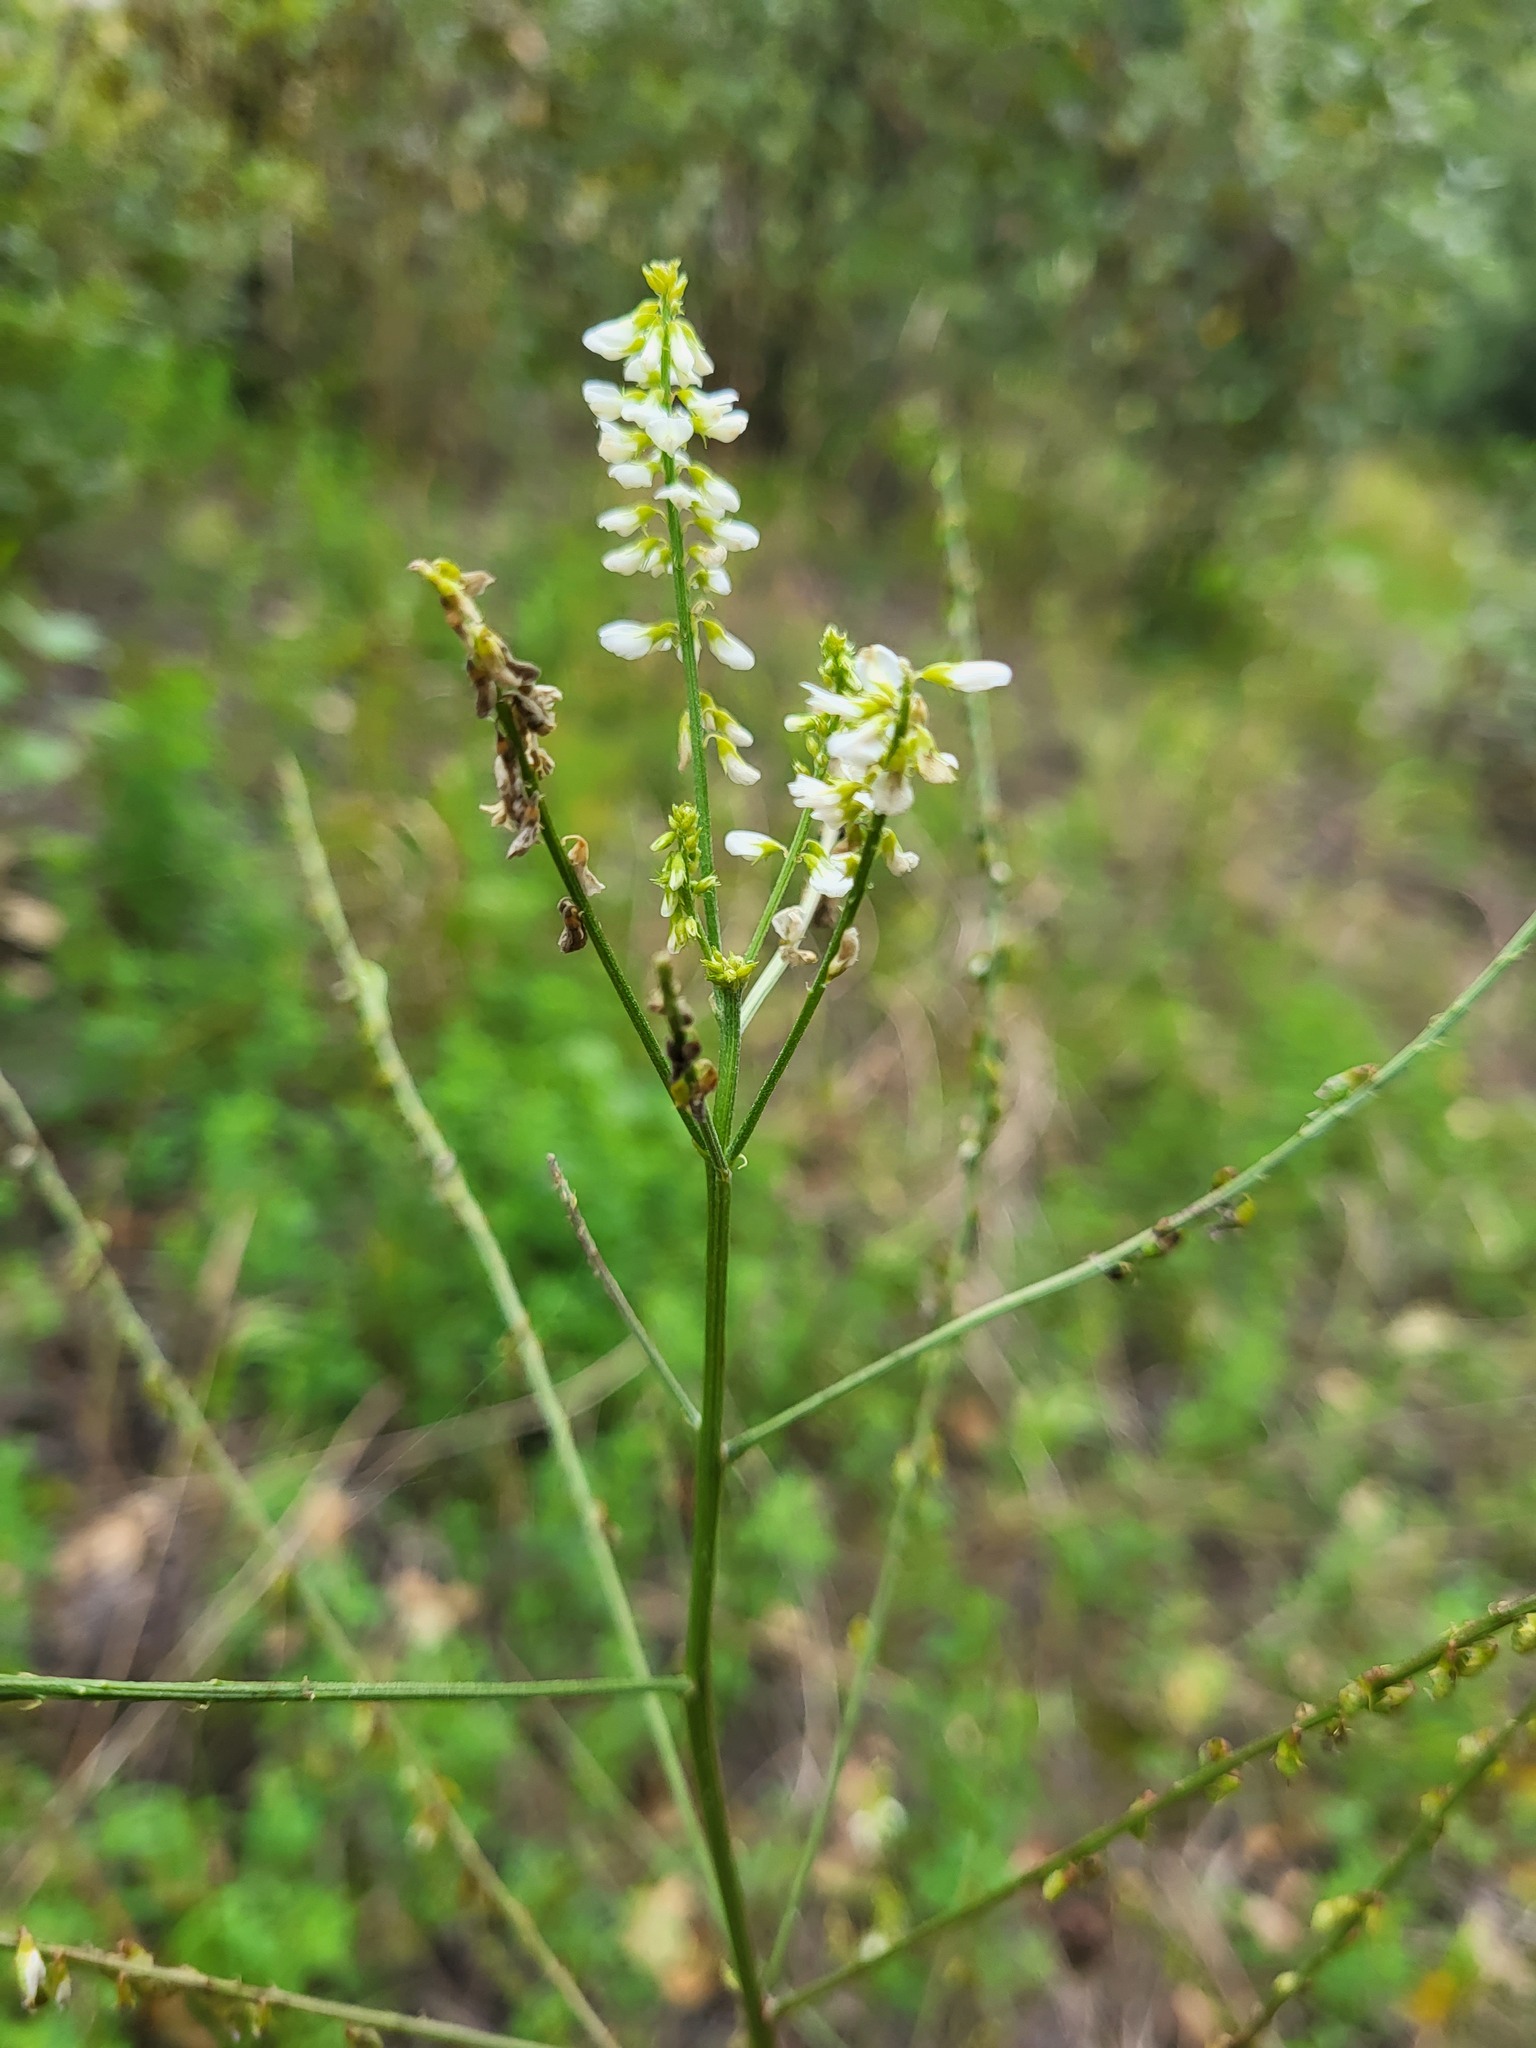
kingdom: Plantae
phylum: Tracheophyta
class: Magnoliopsida
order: Fabales
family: Fabaceae
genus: Melilotus
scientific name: Melilotus albus
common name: White melilot
